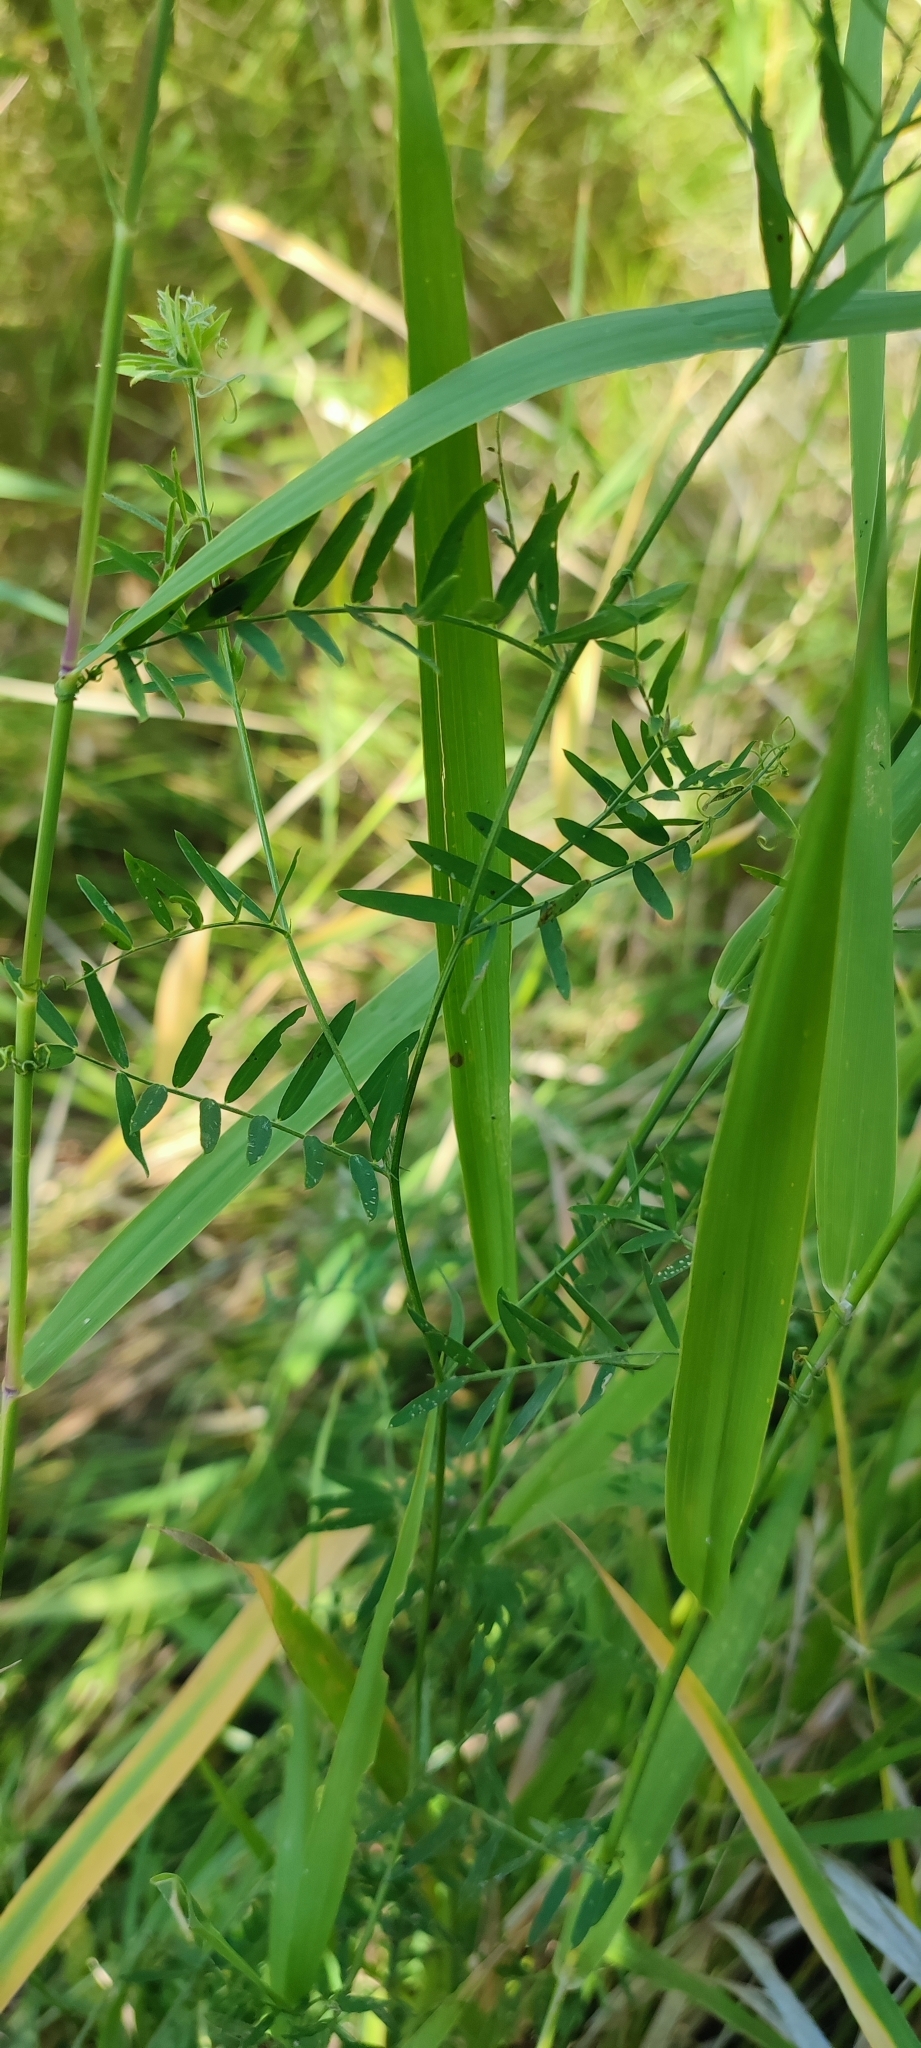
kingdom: Plantae
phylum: Tracheophyta
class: Magnoliopsida
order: Fabales
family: Fabaceae
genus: Vicia
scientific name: Vicia cracca
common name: Bird vetch
